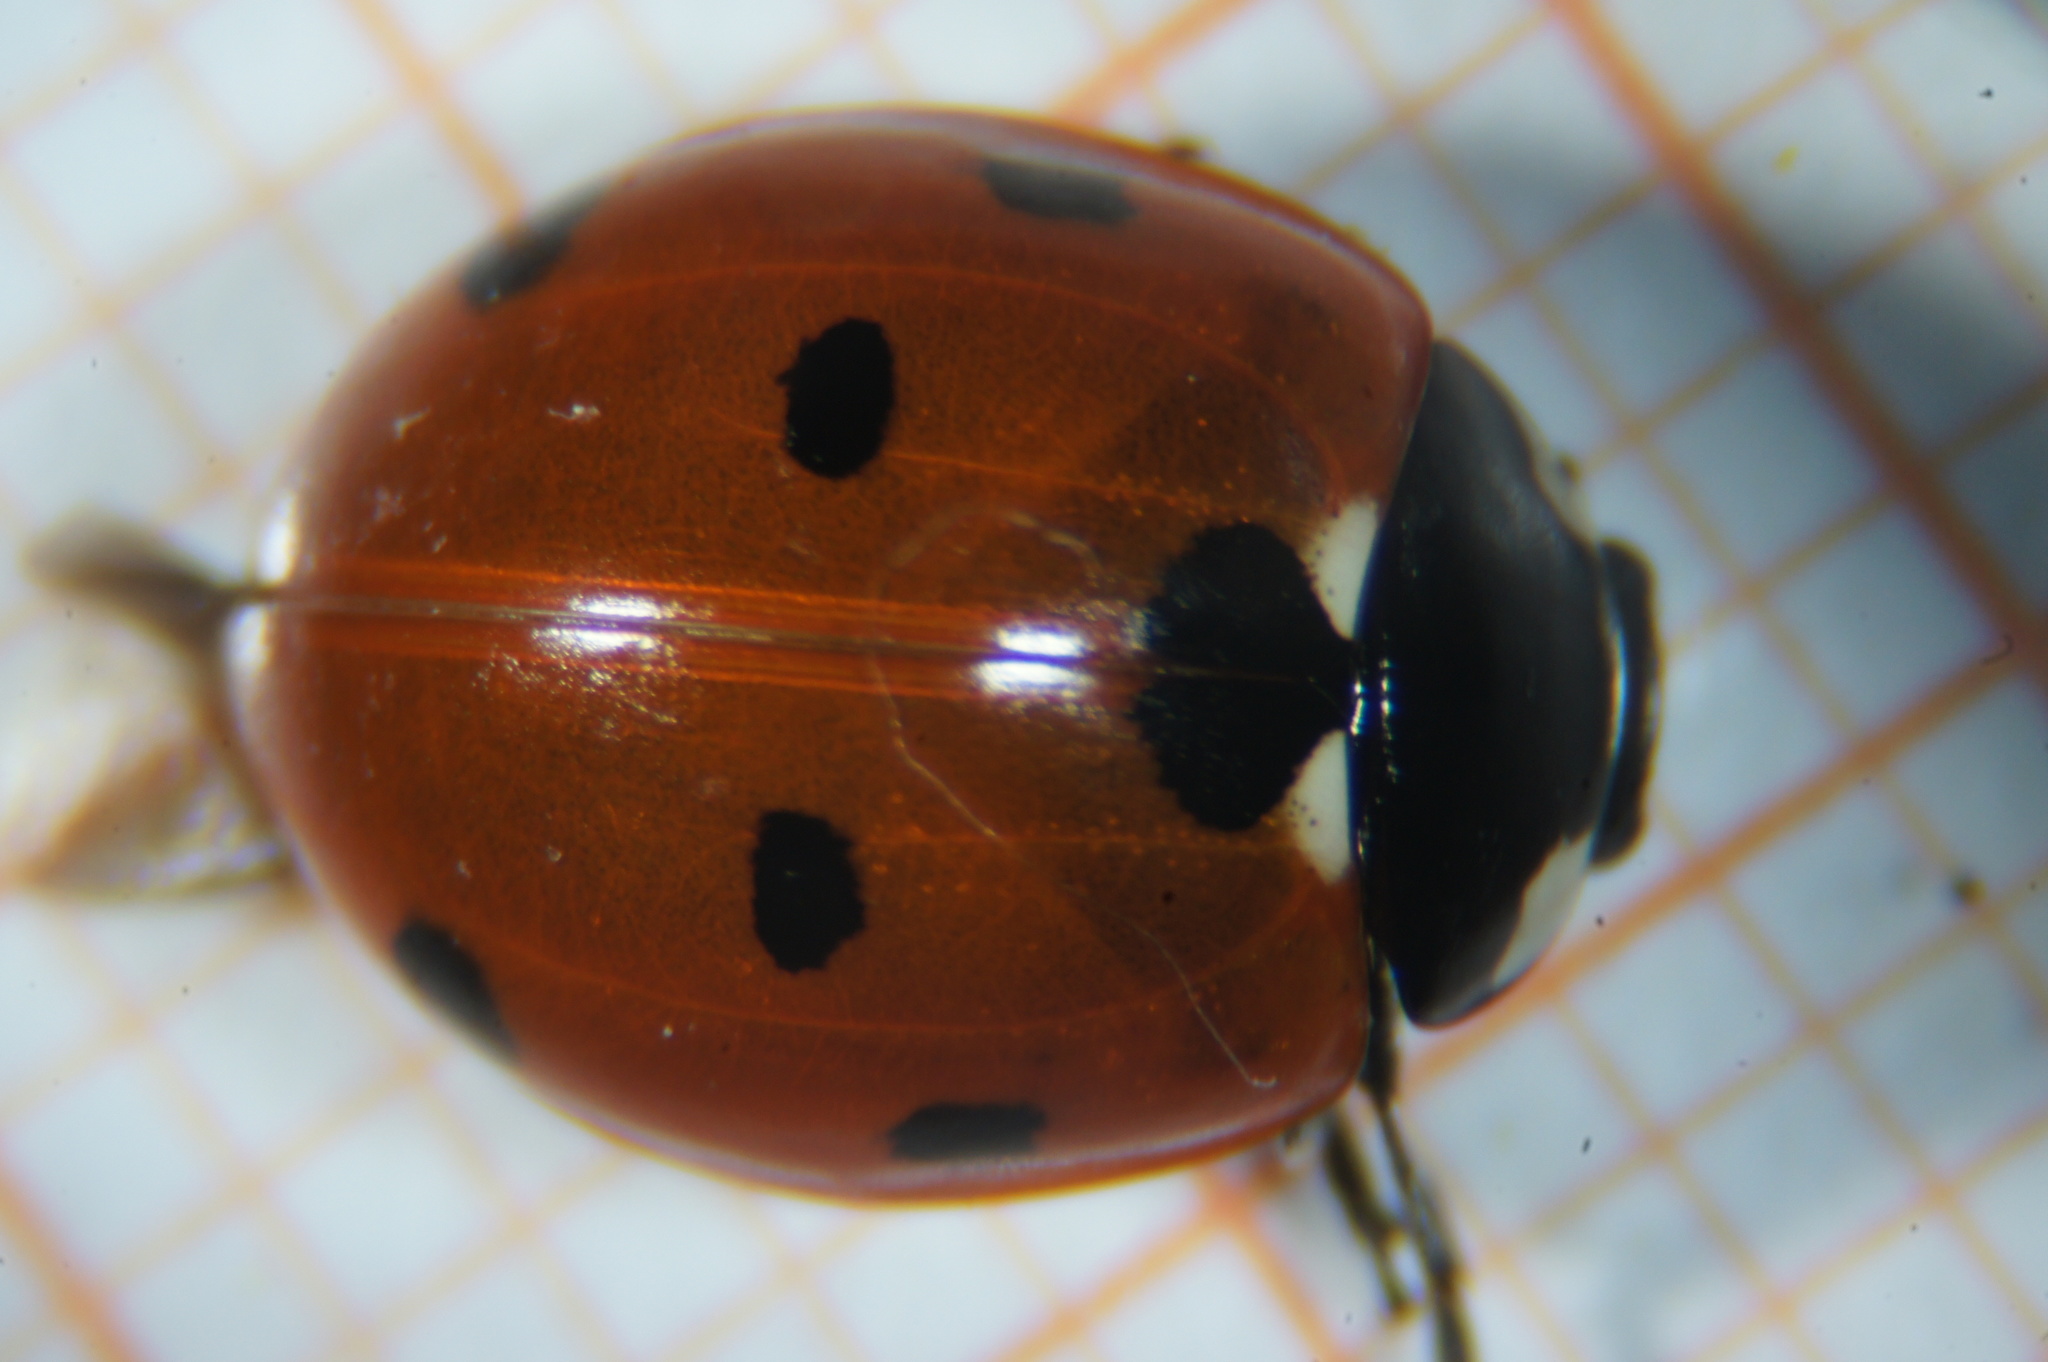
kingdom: Animalia
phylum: Arthropoda
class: Insecta
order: Coleoptera
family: Coccinellidae
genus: Coccinella
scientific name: Coccinella septempunctata
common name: Sevenspotted lady beetle
